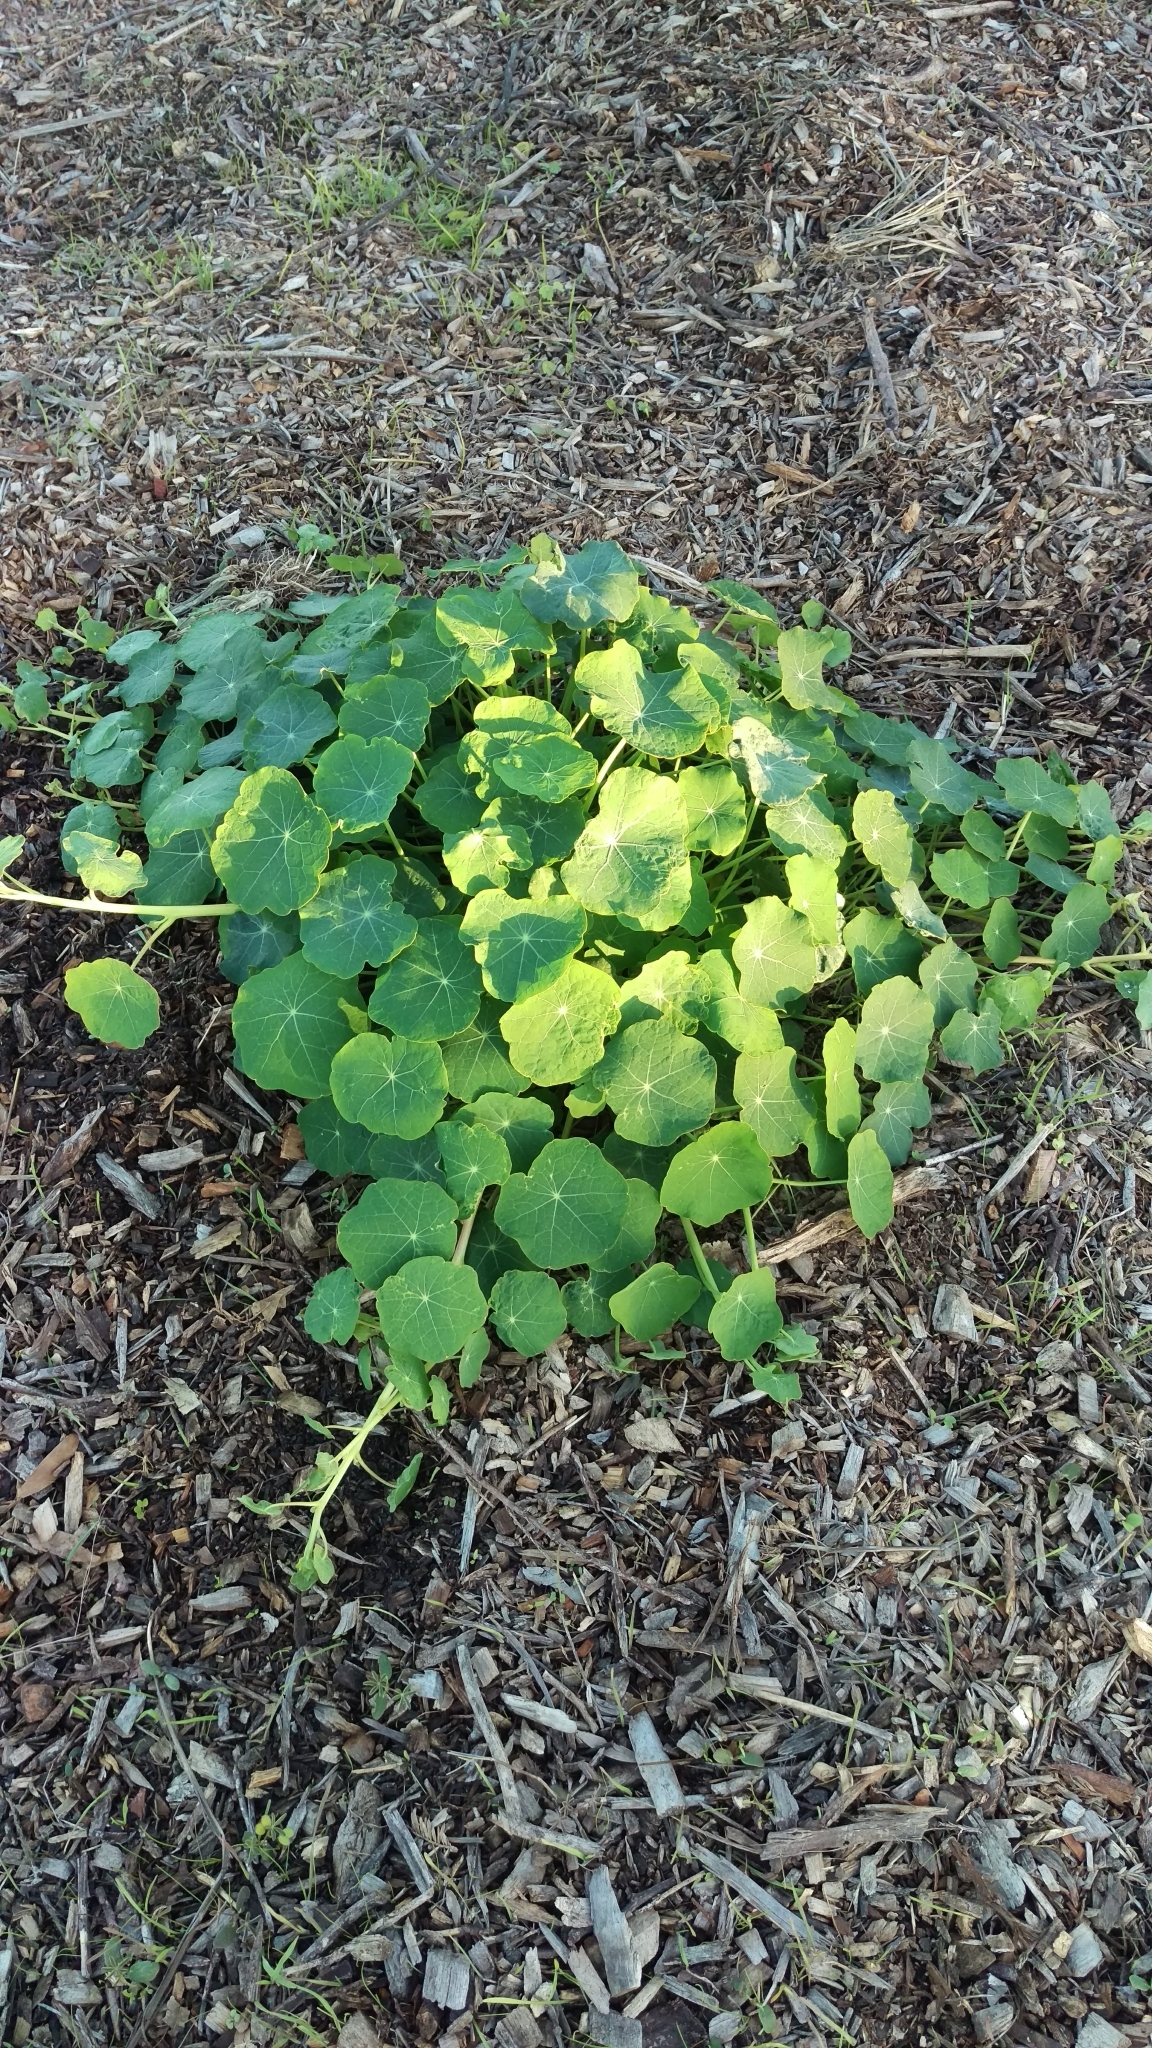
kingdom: Plantae
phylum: Tracheophyta
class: Magnoliopsida
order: Brassicales
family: Tropaeolaceae
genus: Tropaeolum
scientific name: Tropaeolum majus
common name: Nasturtium
